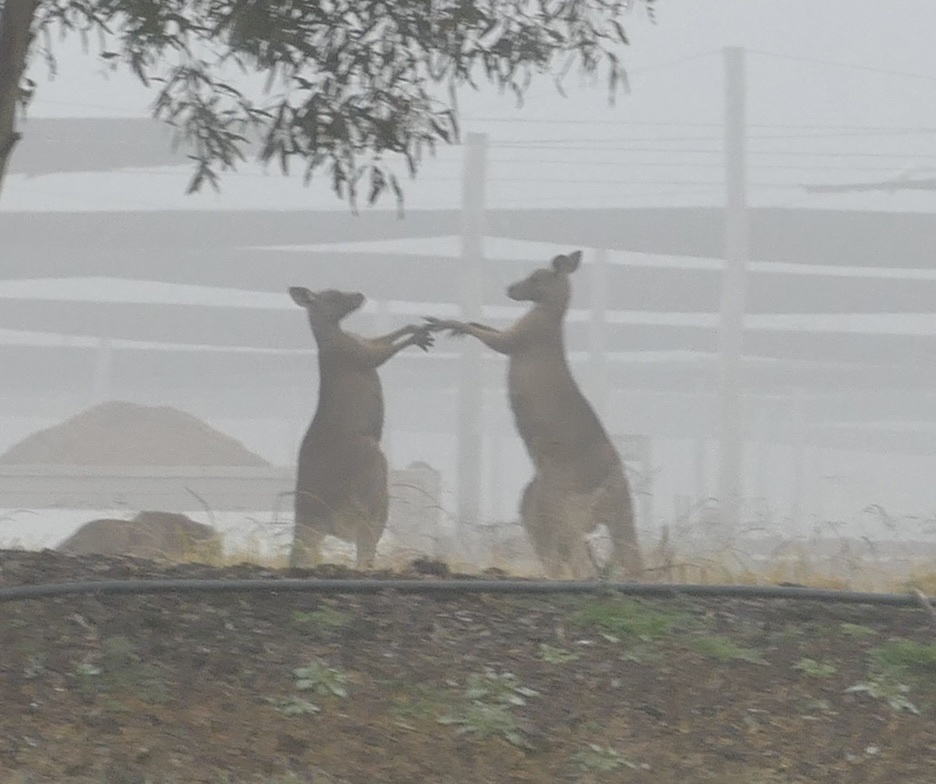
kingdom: Animalia
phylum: Chordata
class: Mammalia
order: Diprotodontia
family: Macropodidae
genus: Macropus
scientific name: Macropus giganteus
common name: Eastern grey kangaroo
